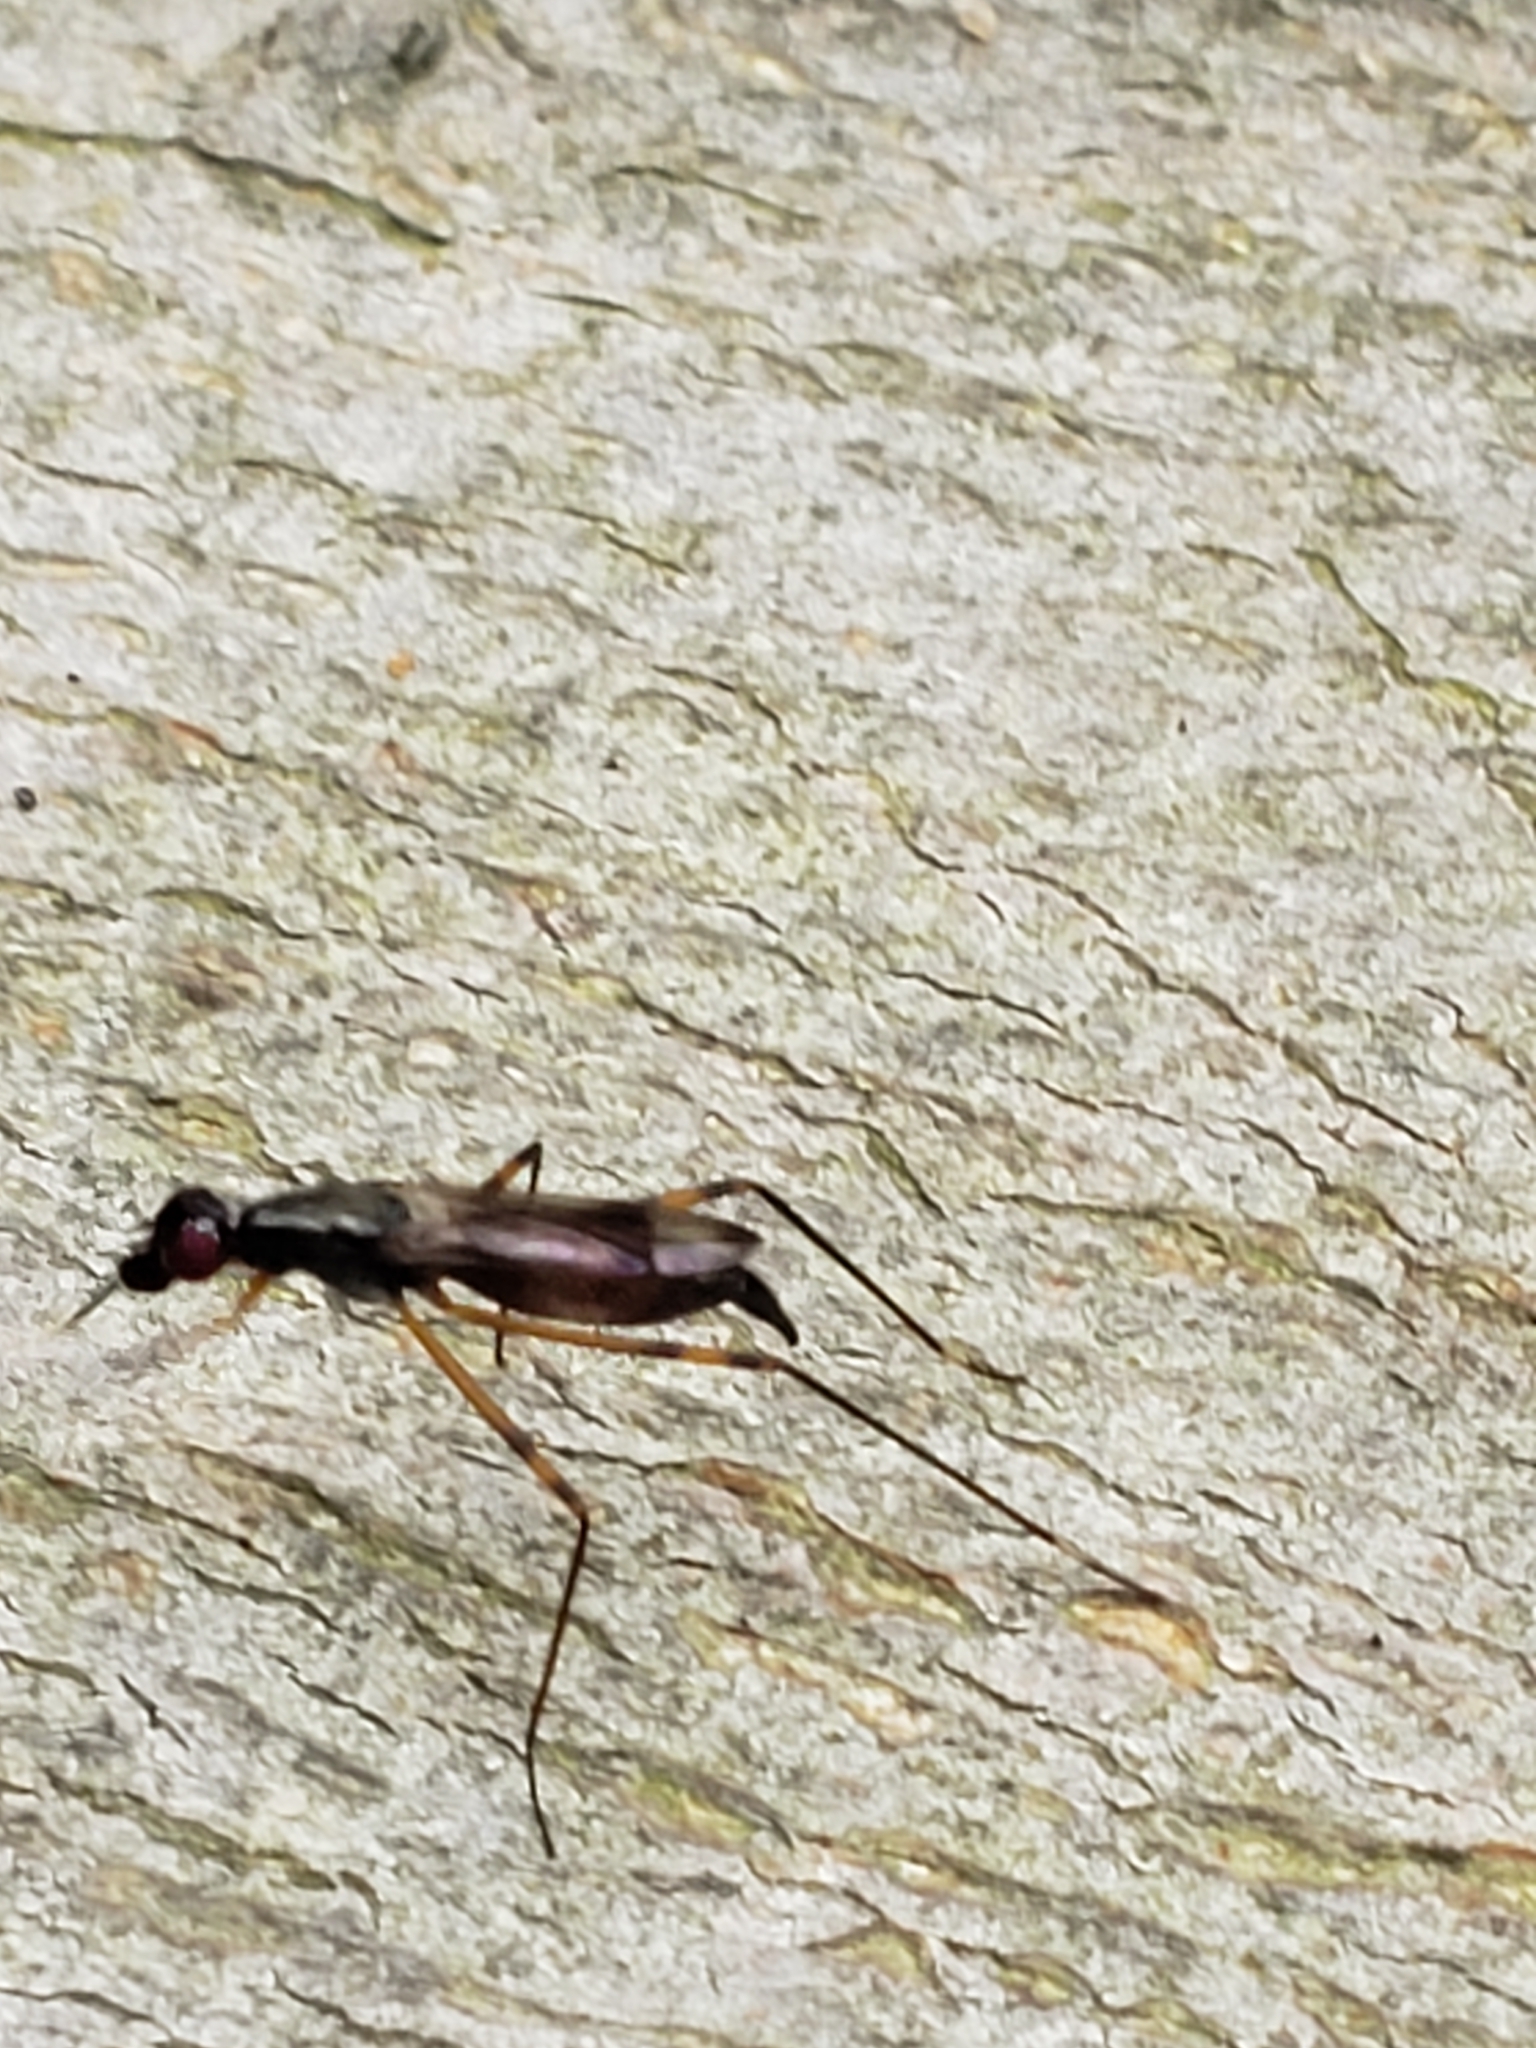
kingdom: Animalia
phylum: Arthropoda
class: Insecta
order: Diptera
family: Micropezidae
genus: Rainieria
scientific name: Rainieria antennaepes
